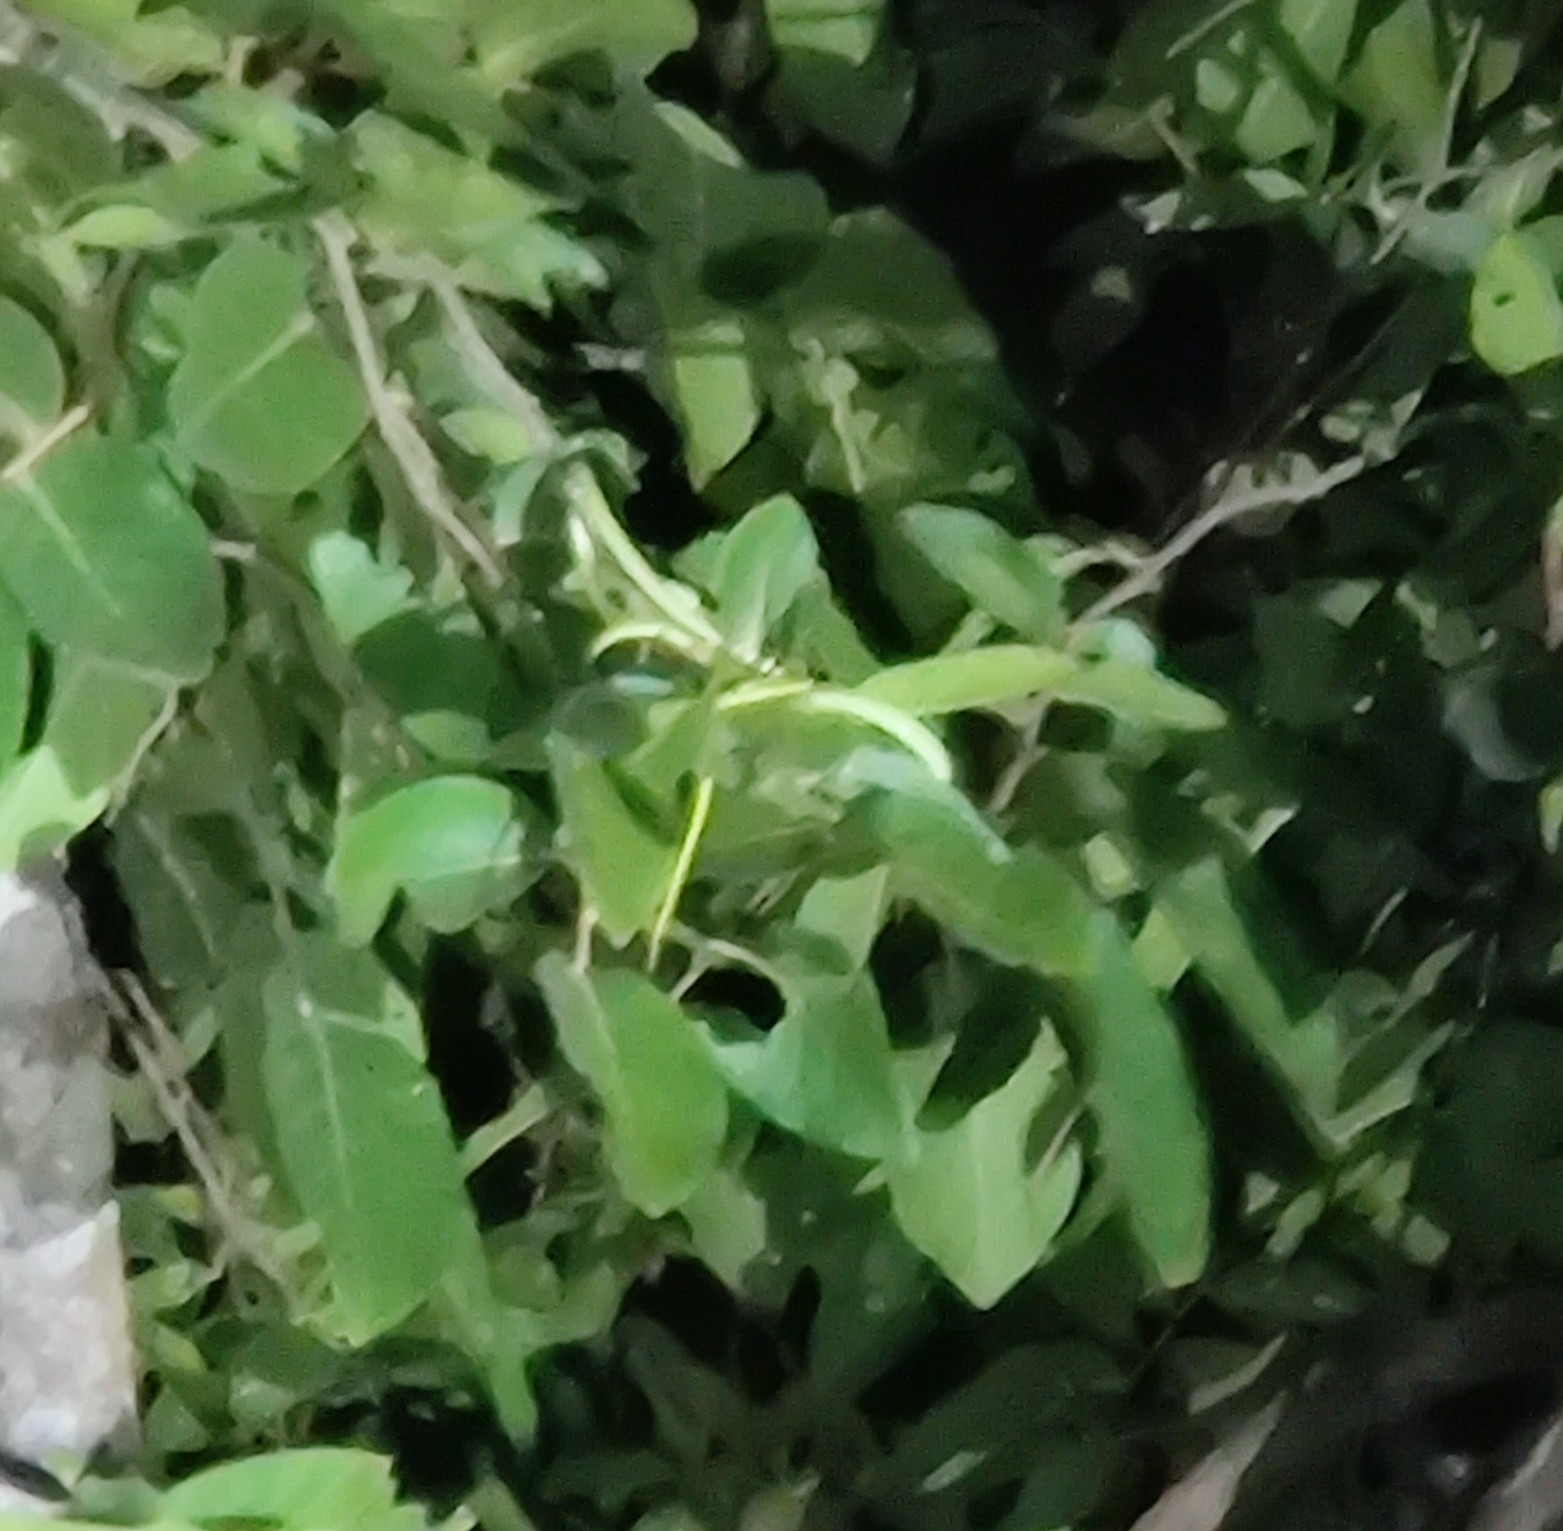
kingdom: Animalia
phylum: Chordata
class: Squamata
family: Colubridae
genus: Ahaetulla
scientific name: Ahaetulla oxyrhyncha
